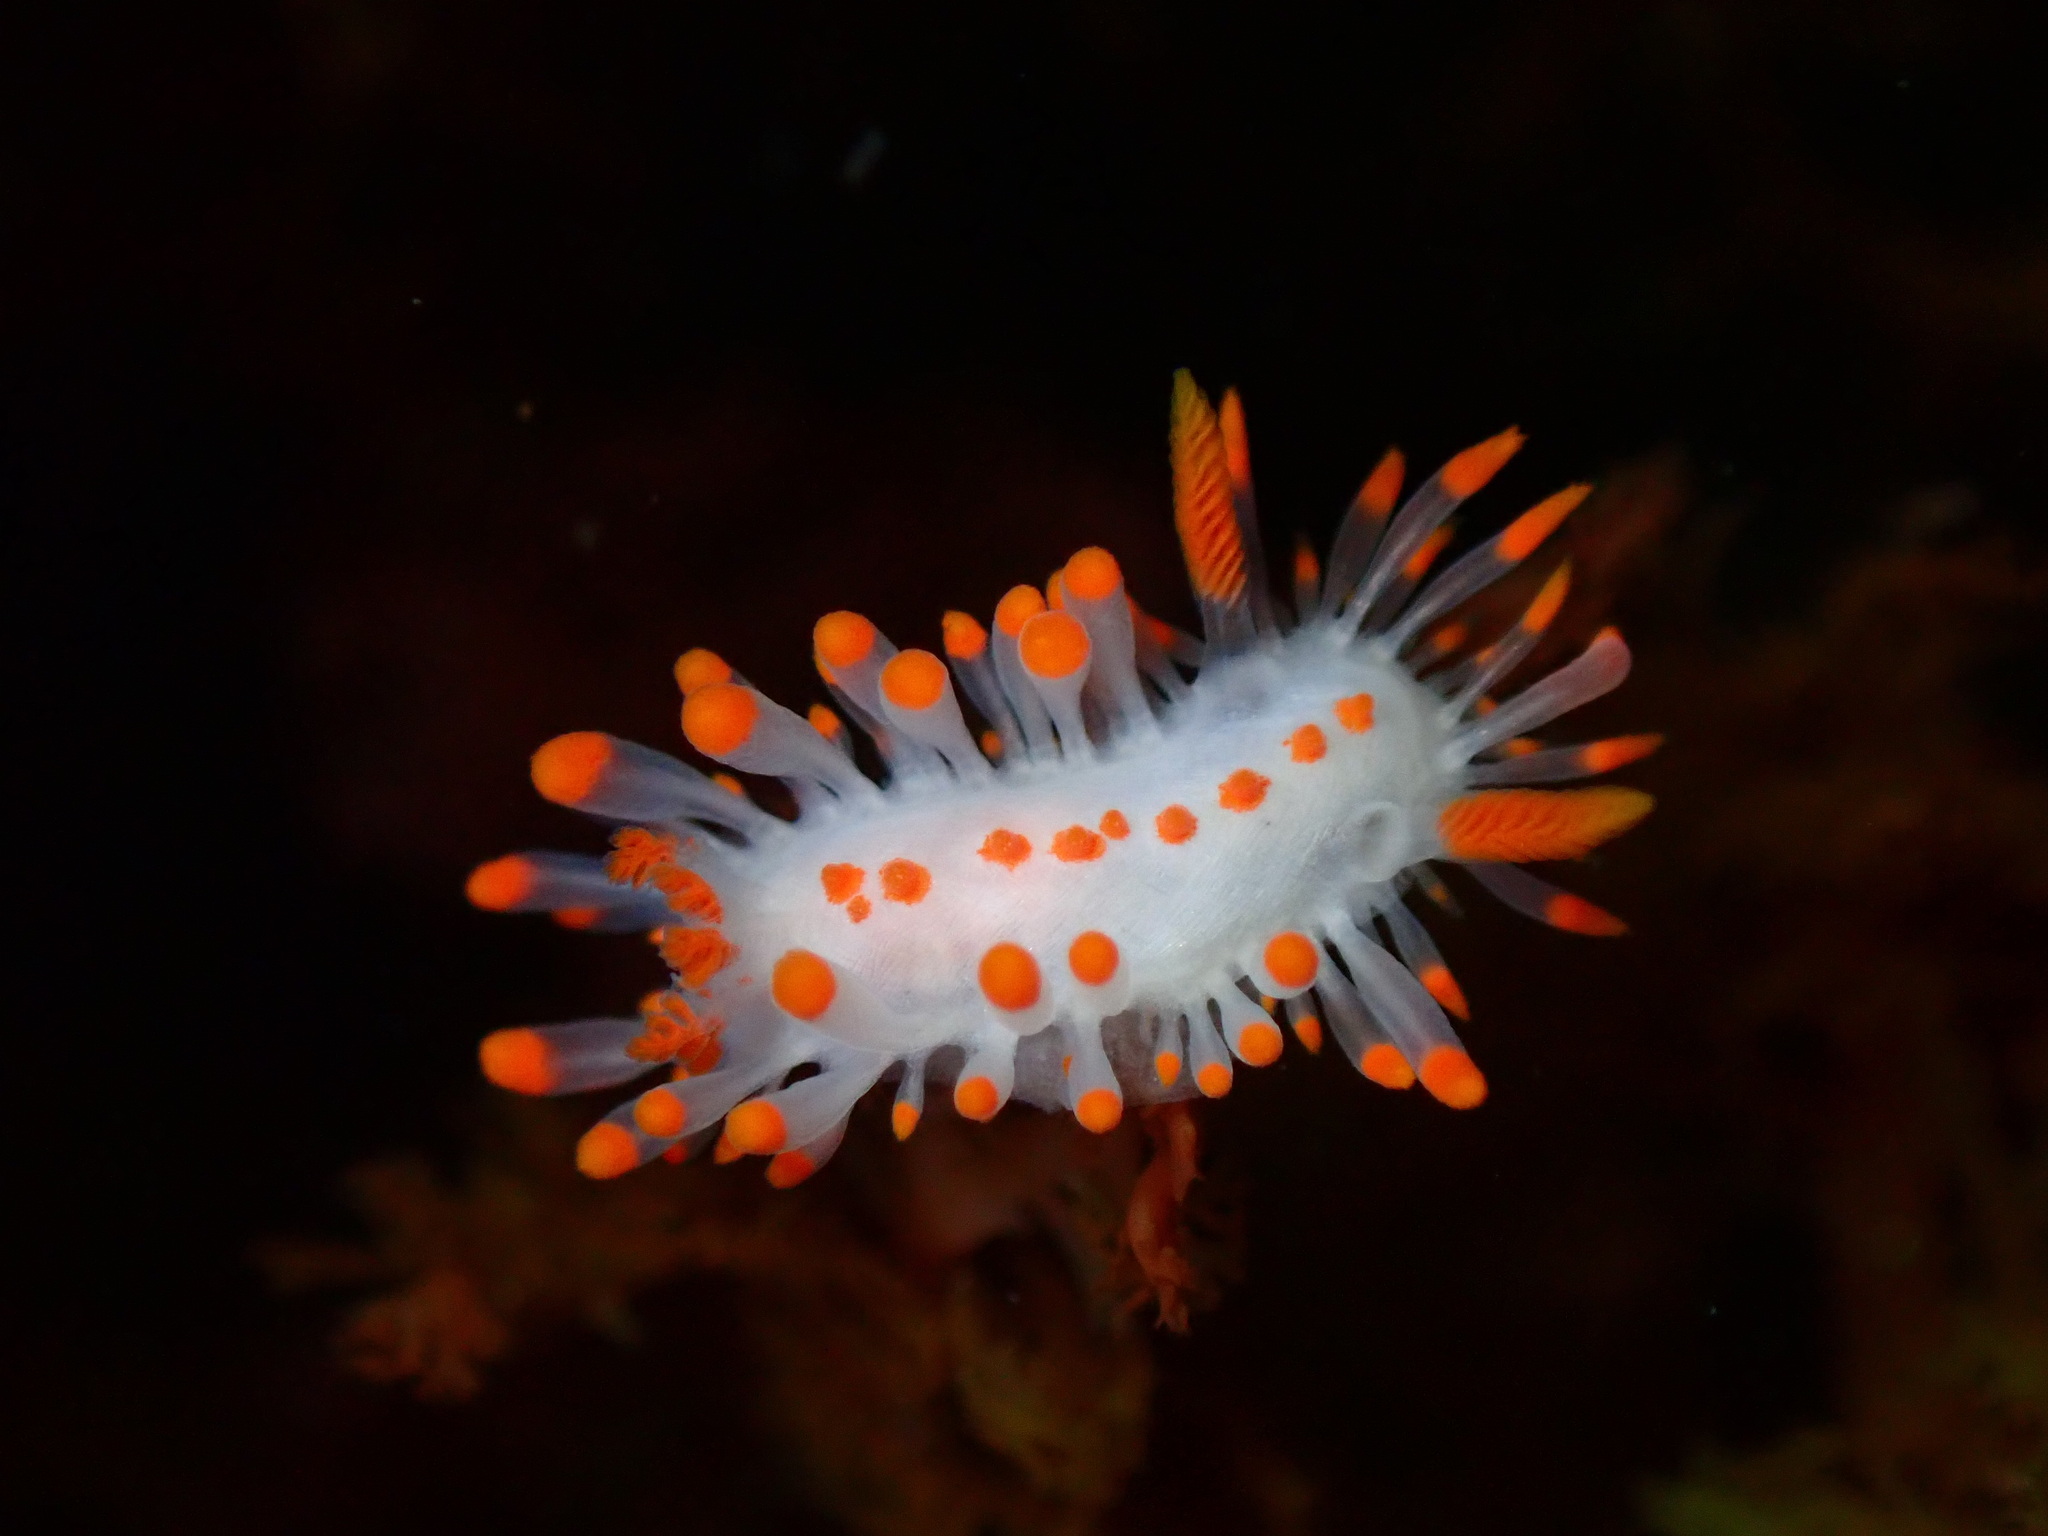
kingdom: Animalia
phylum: Mollusca
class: Gastropoda
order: Nudibranchia
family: Polyceridae
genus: Limacia
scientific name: Limacia mcdonaldi
